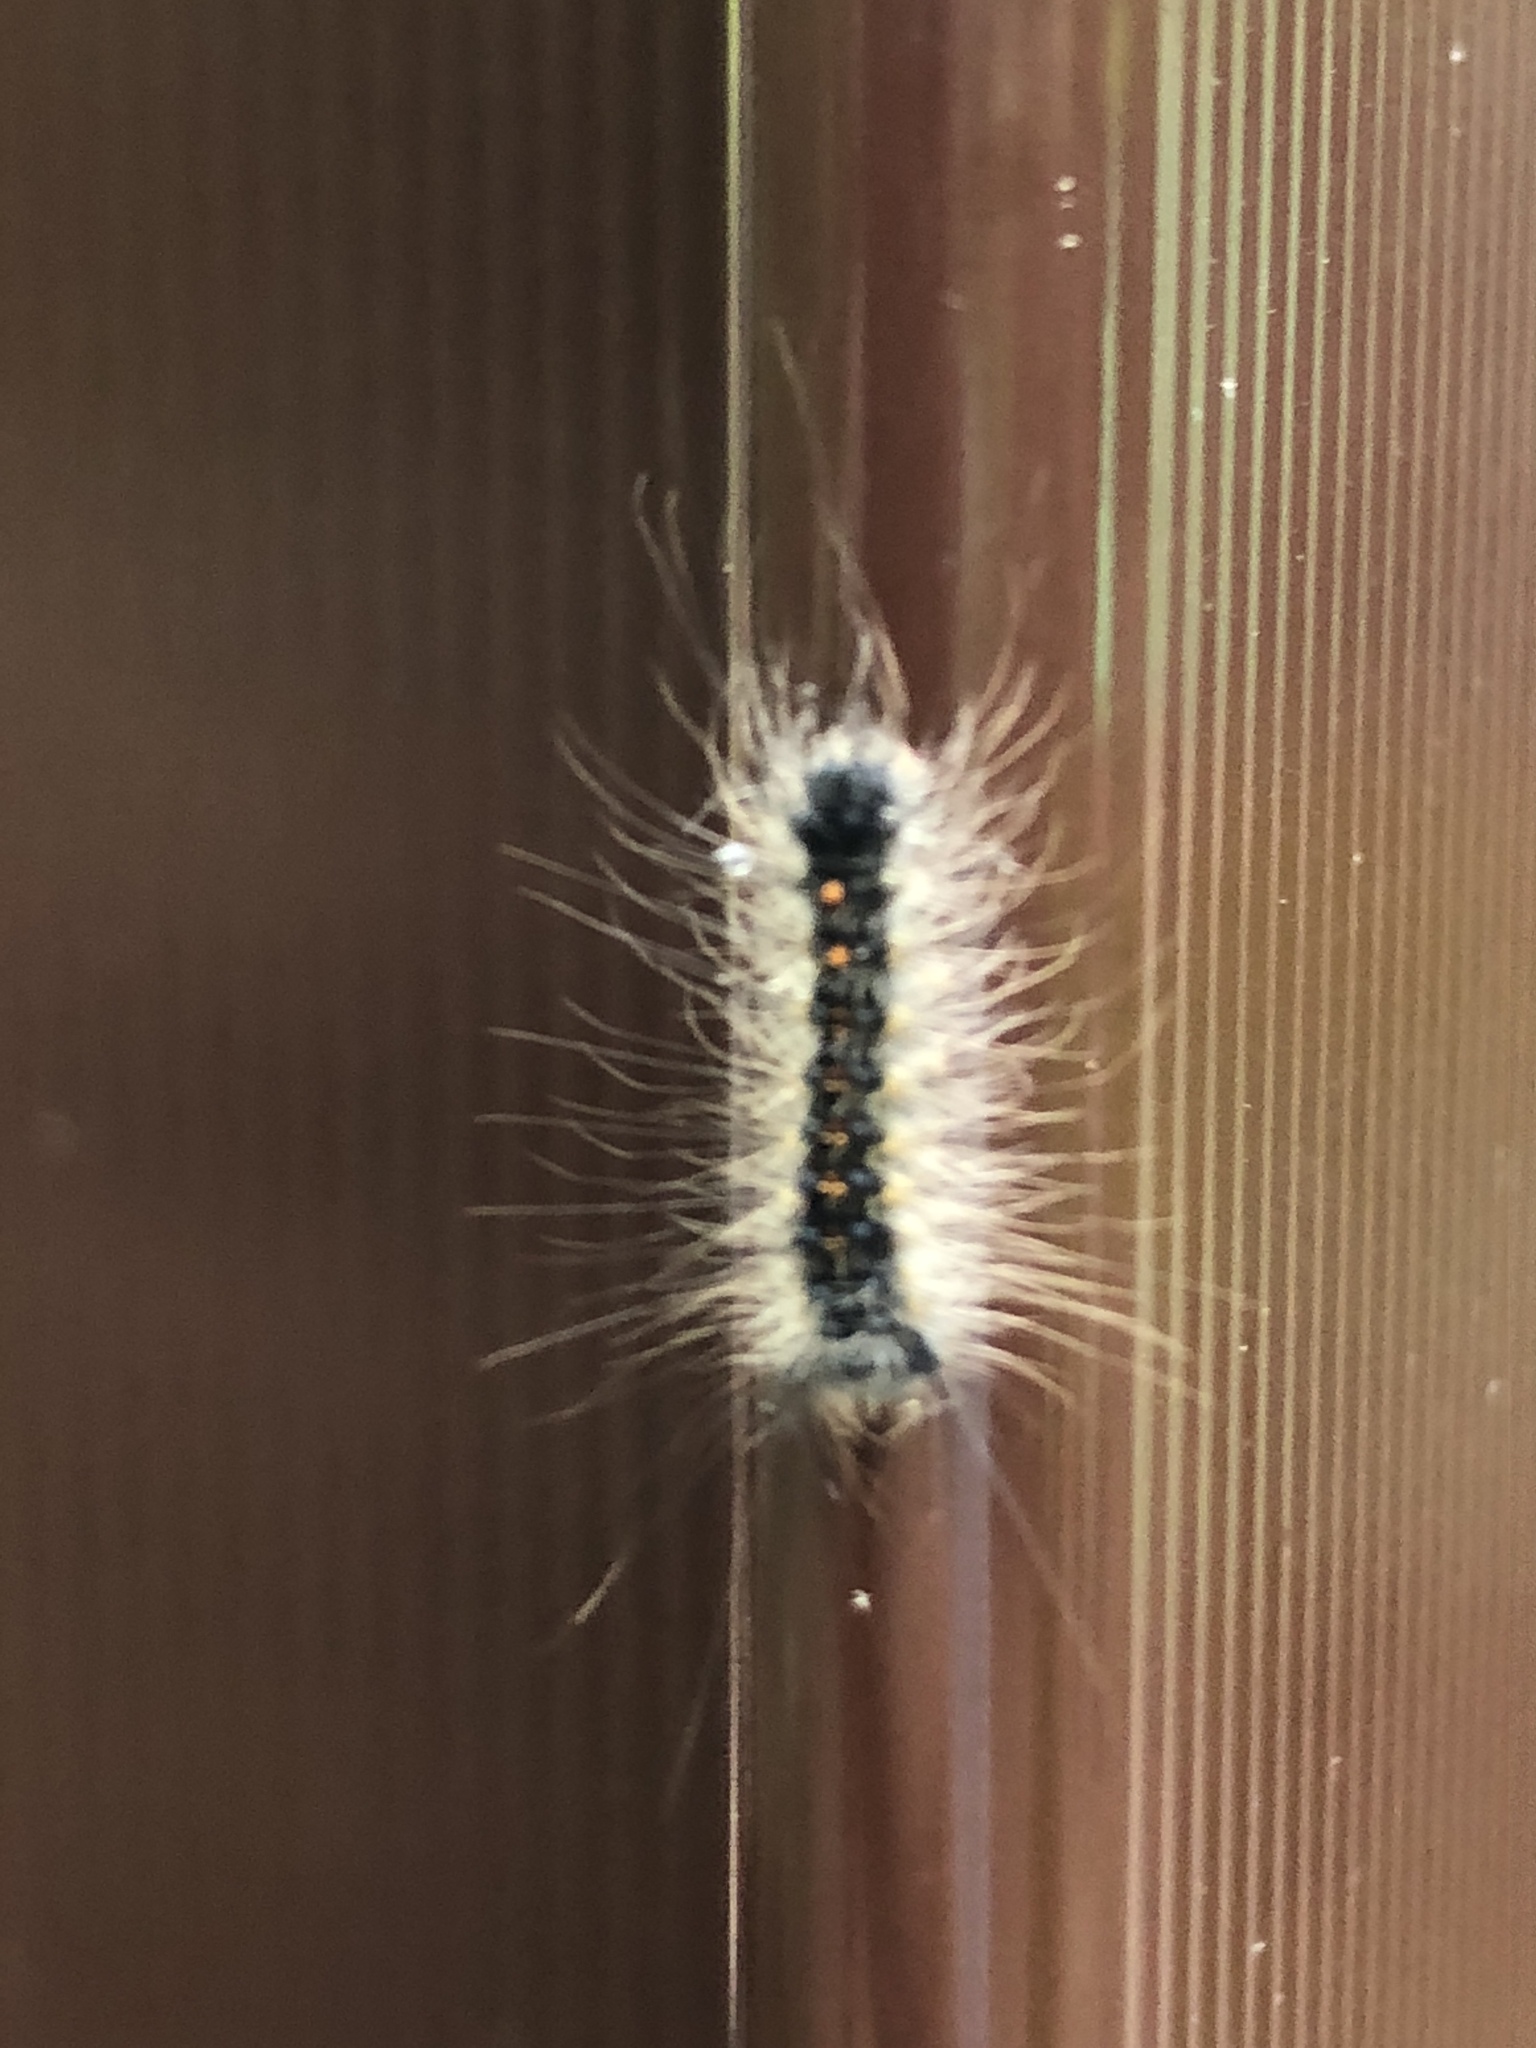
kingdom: Animalia
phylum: Arthropoda
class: Insecta
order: Lepidoptera
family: Erebidae
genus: Lymantria
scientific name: Lymantria dispar
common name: Gypsy moth
